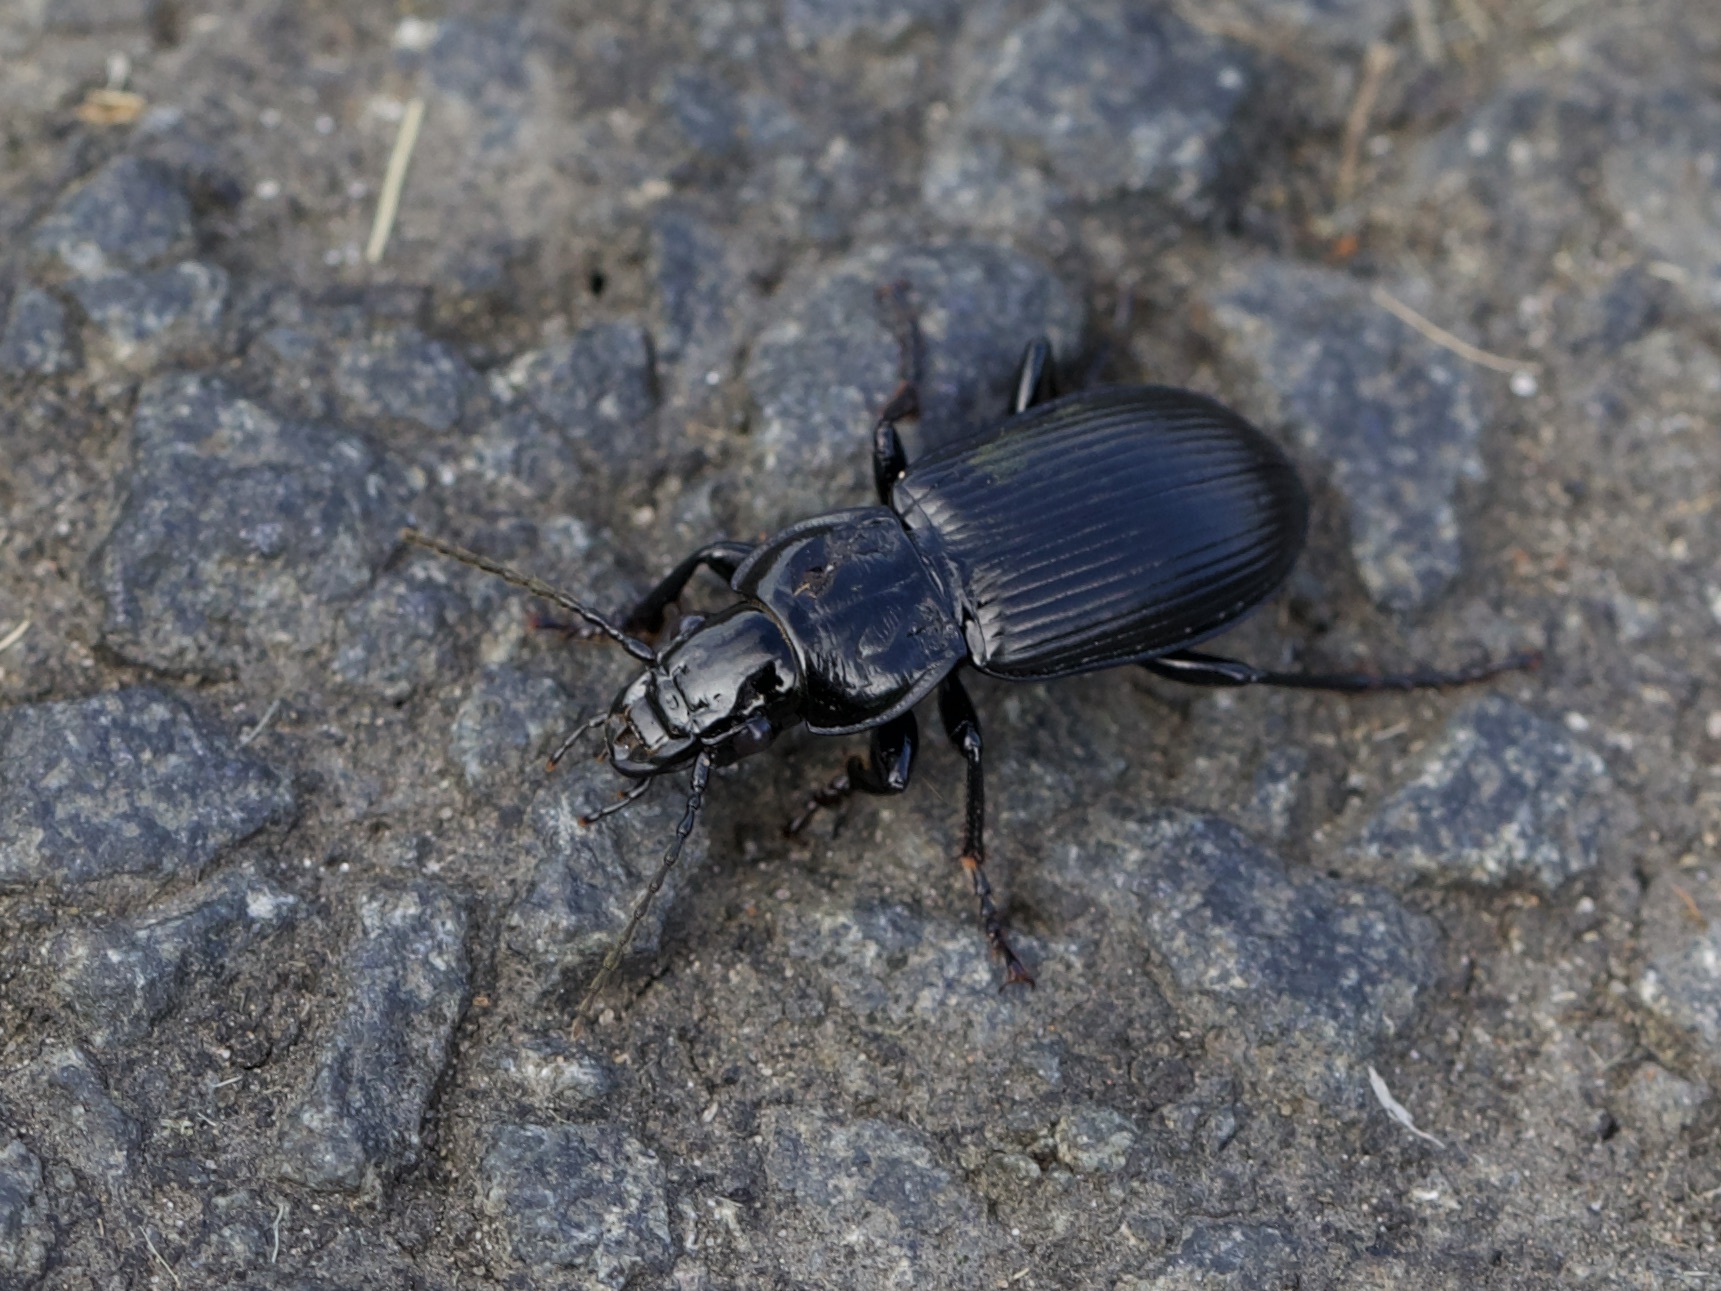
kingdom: Animalia
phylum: Arthropoda
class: Insecta
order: Coleoptera
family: Carabidae
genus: Pterostichus
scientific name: Pterostichus melanarius
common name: European dark harp ground beetle
